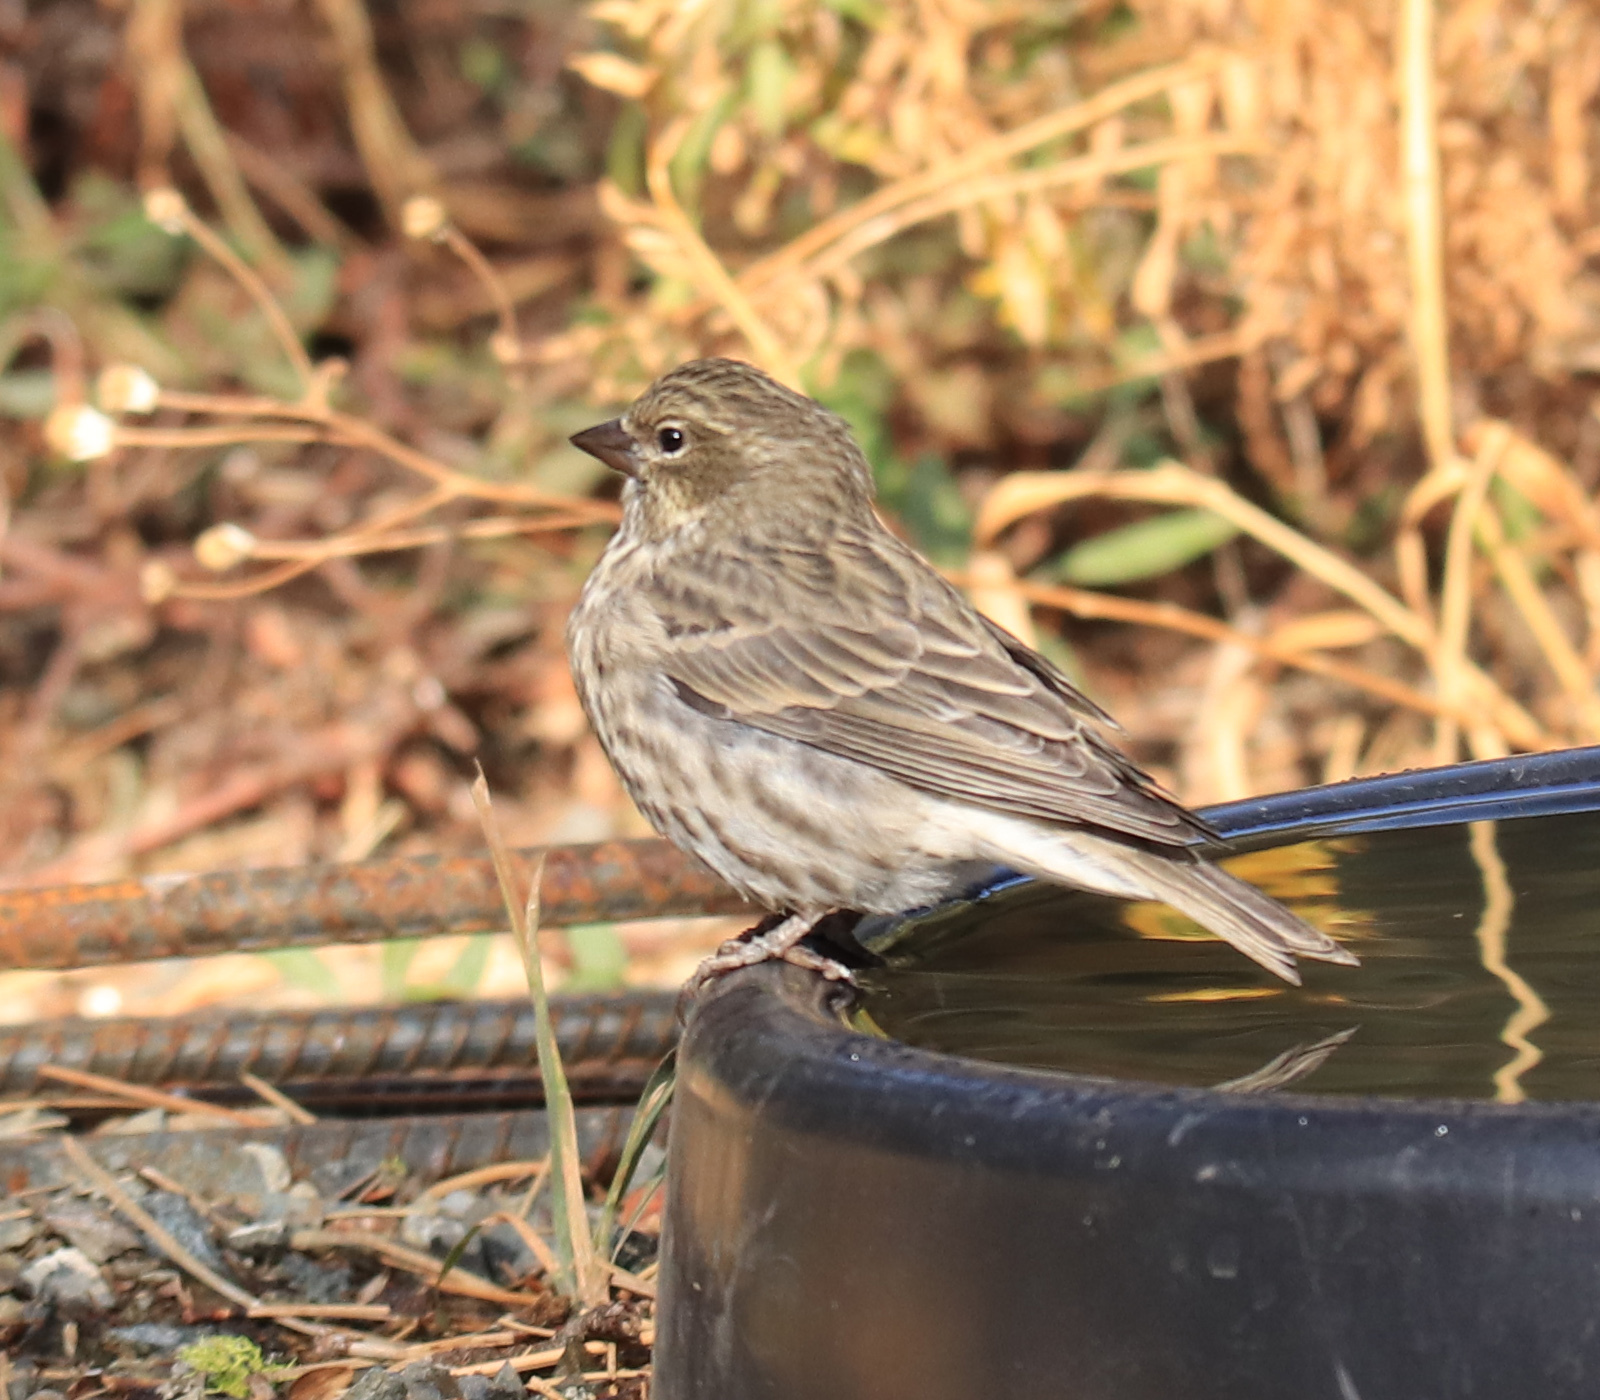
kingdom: Animalia
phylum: Chordata
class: Aves
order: Passeriformes
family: Fringillidae
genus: Haemorhous
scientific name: Haemorhous cassinii
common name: Cassin's finch
